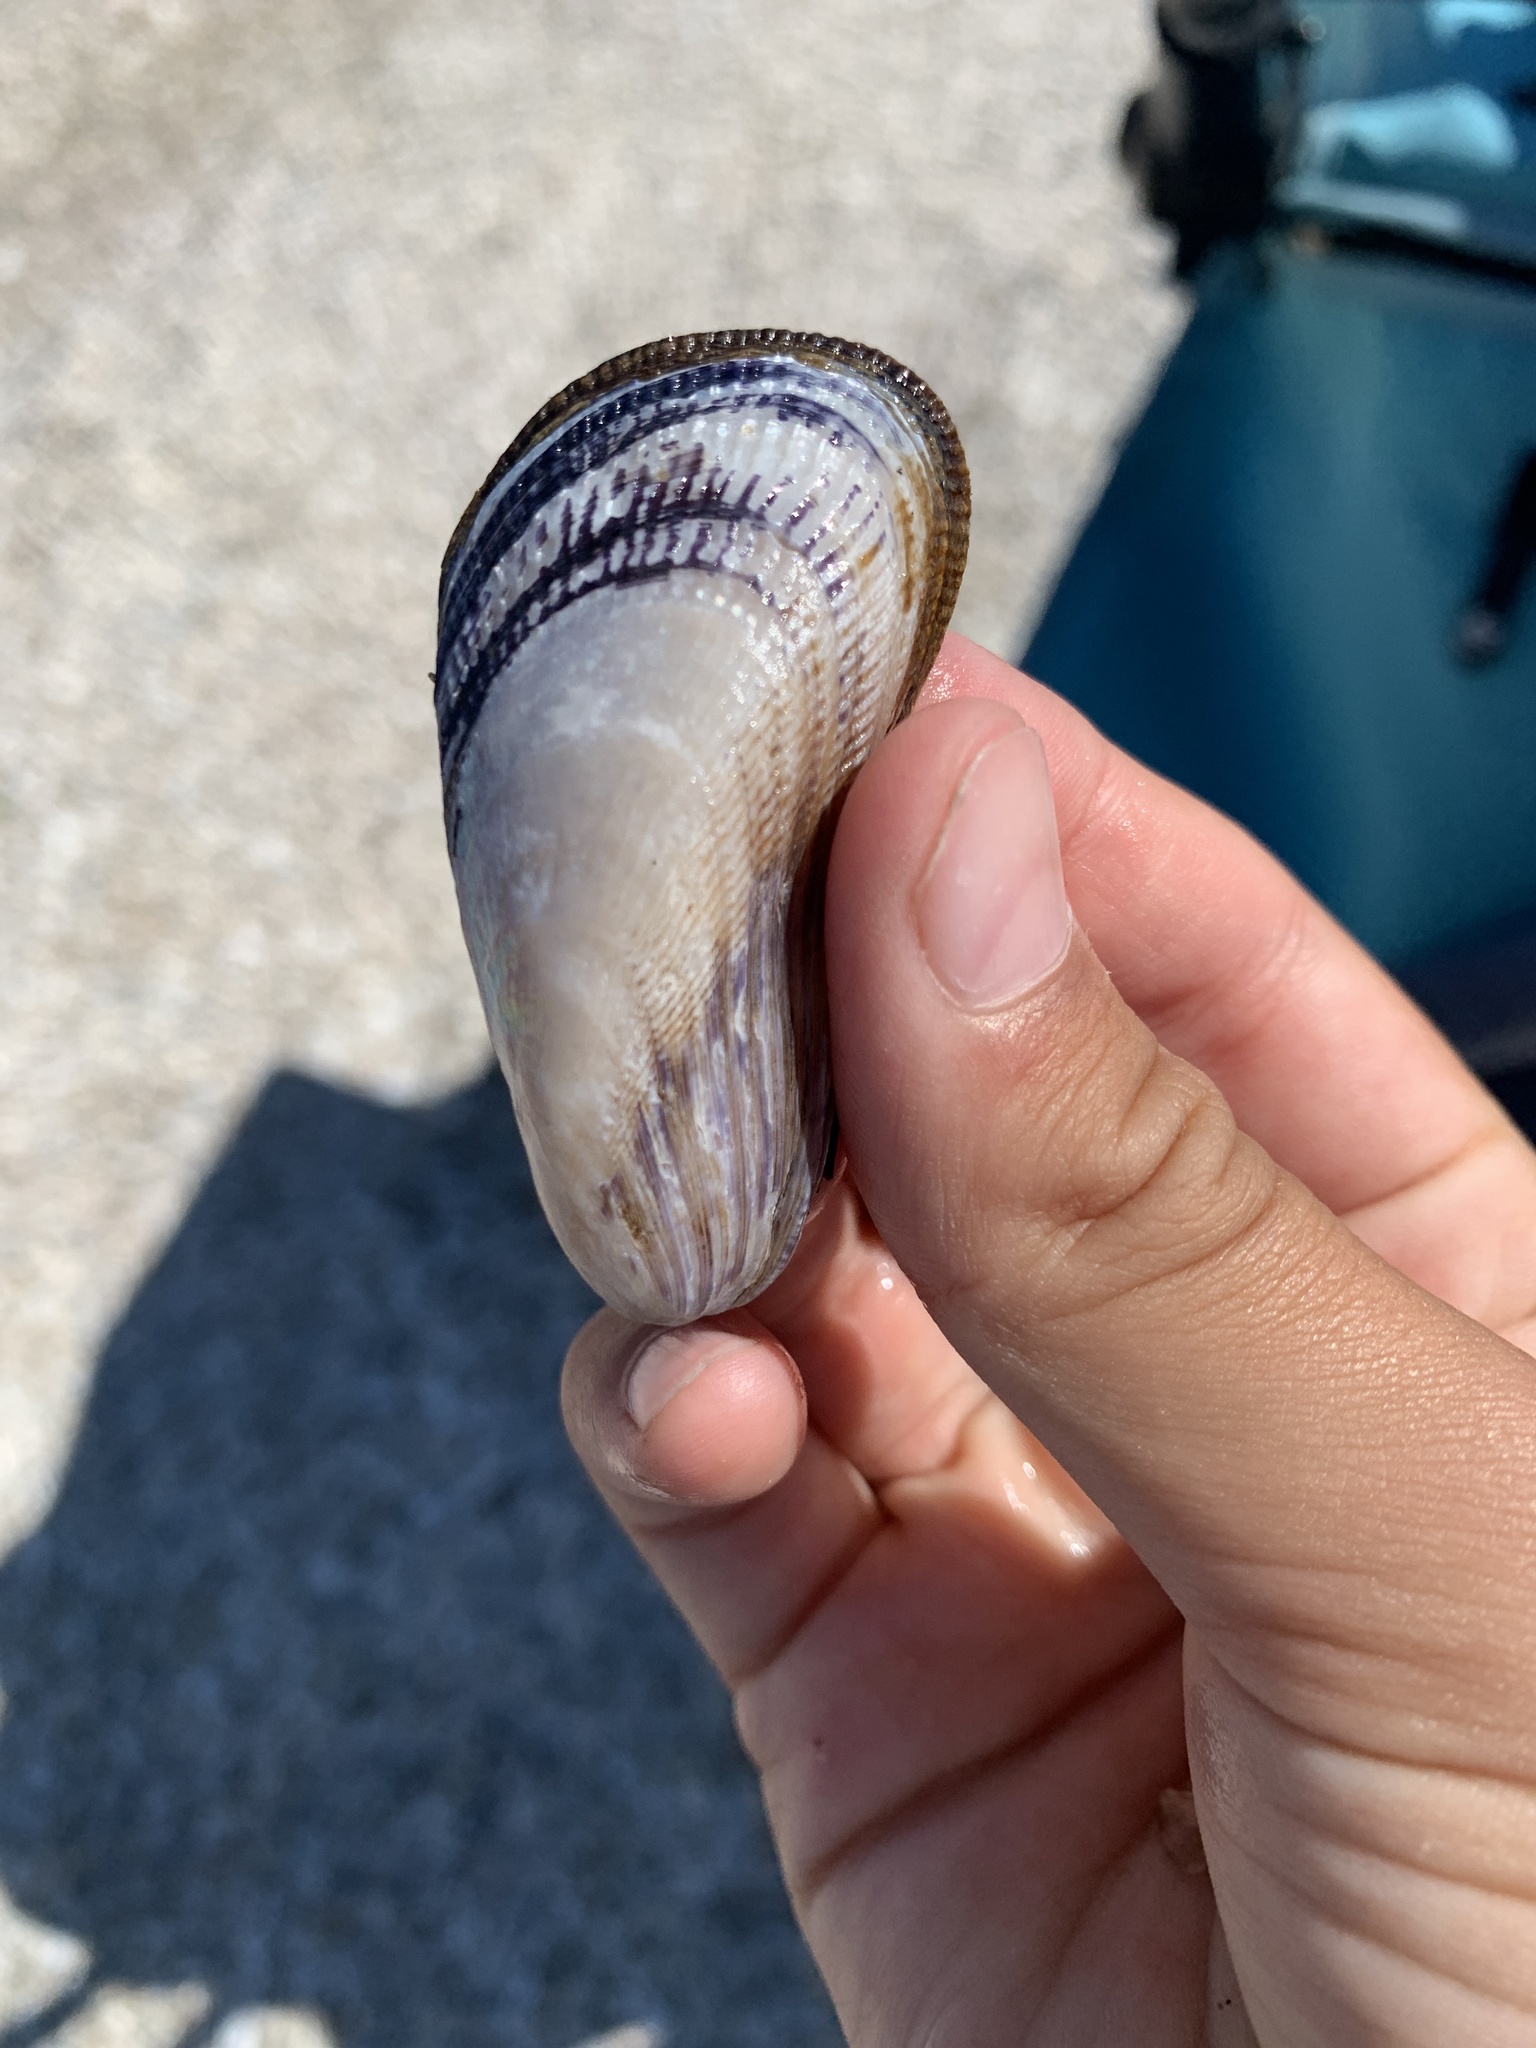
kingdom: Animalia
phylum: Mollusca
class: Bivalvia
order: Mytilida
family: Mytilidae
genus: Geukensia
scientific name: Geukensia demissa
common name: Ribbed mussel
